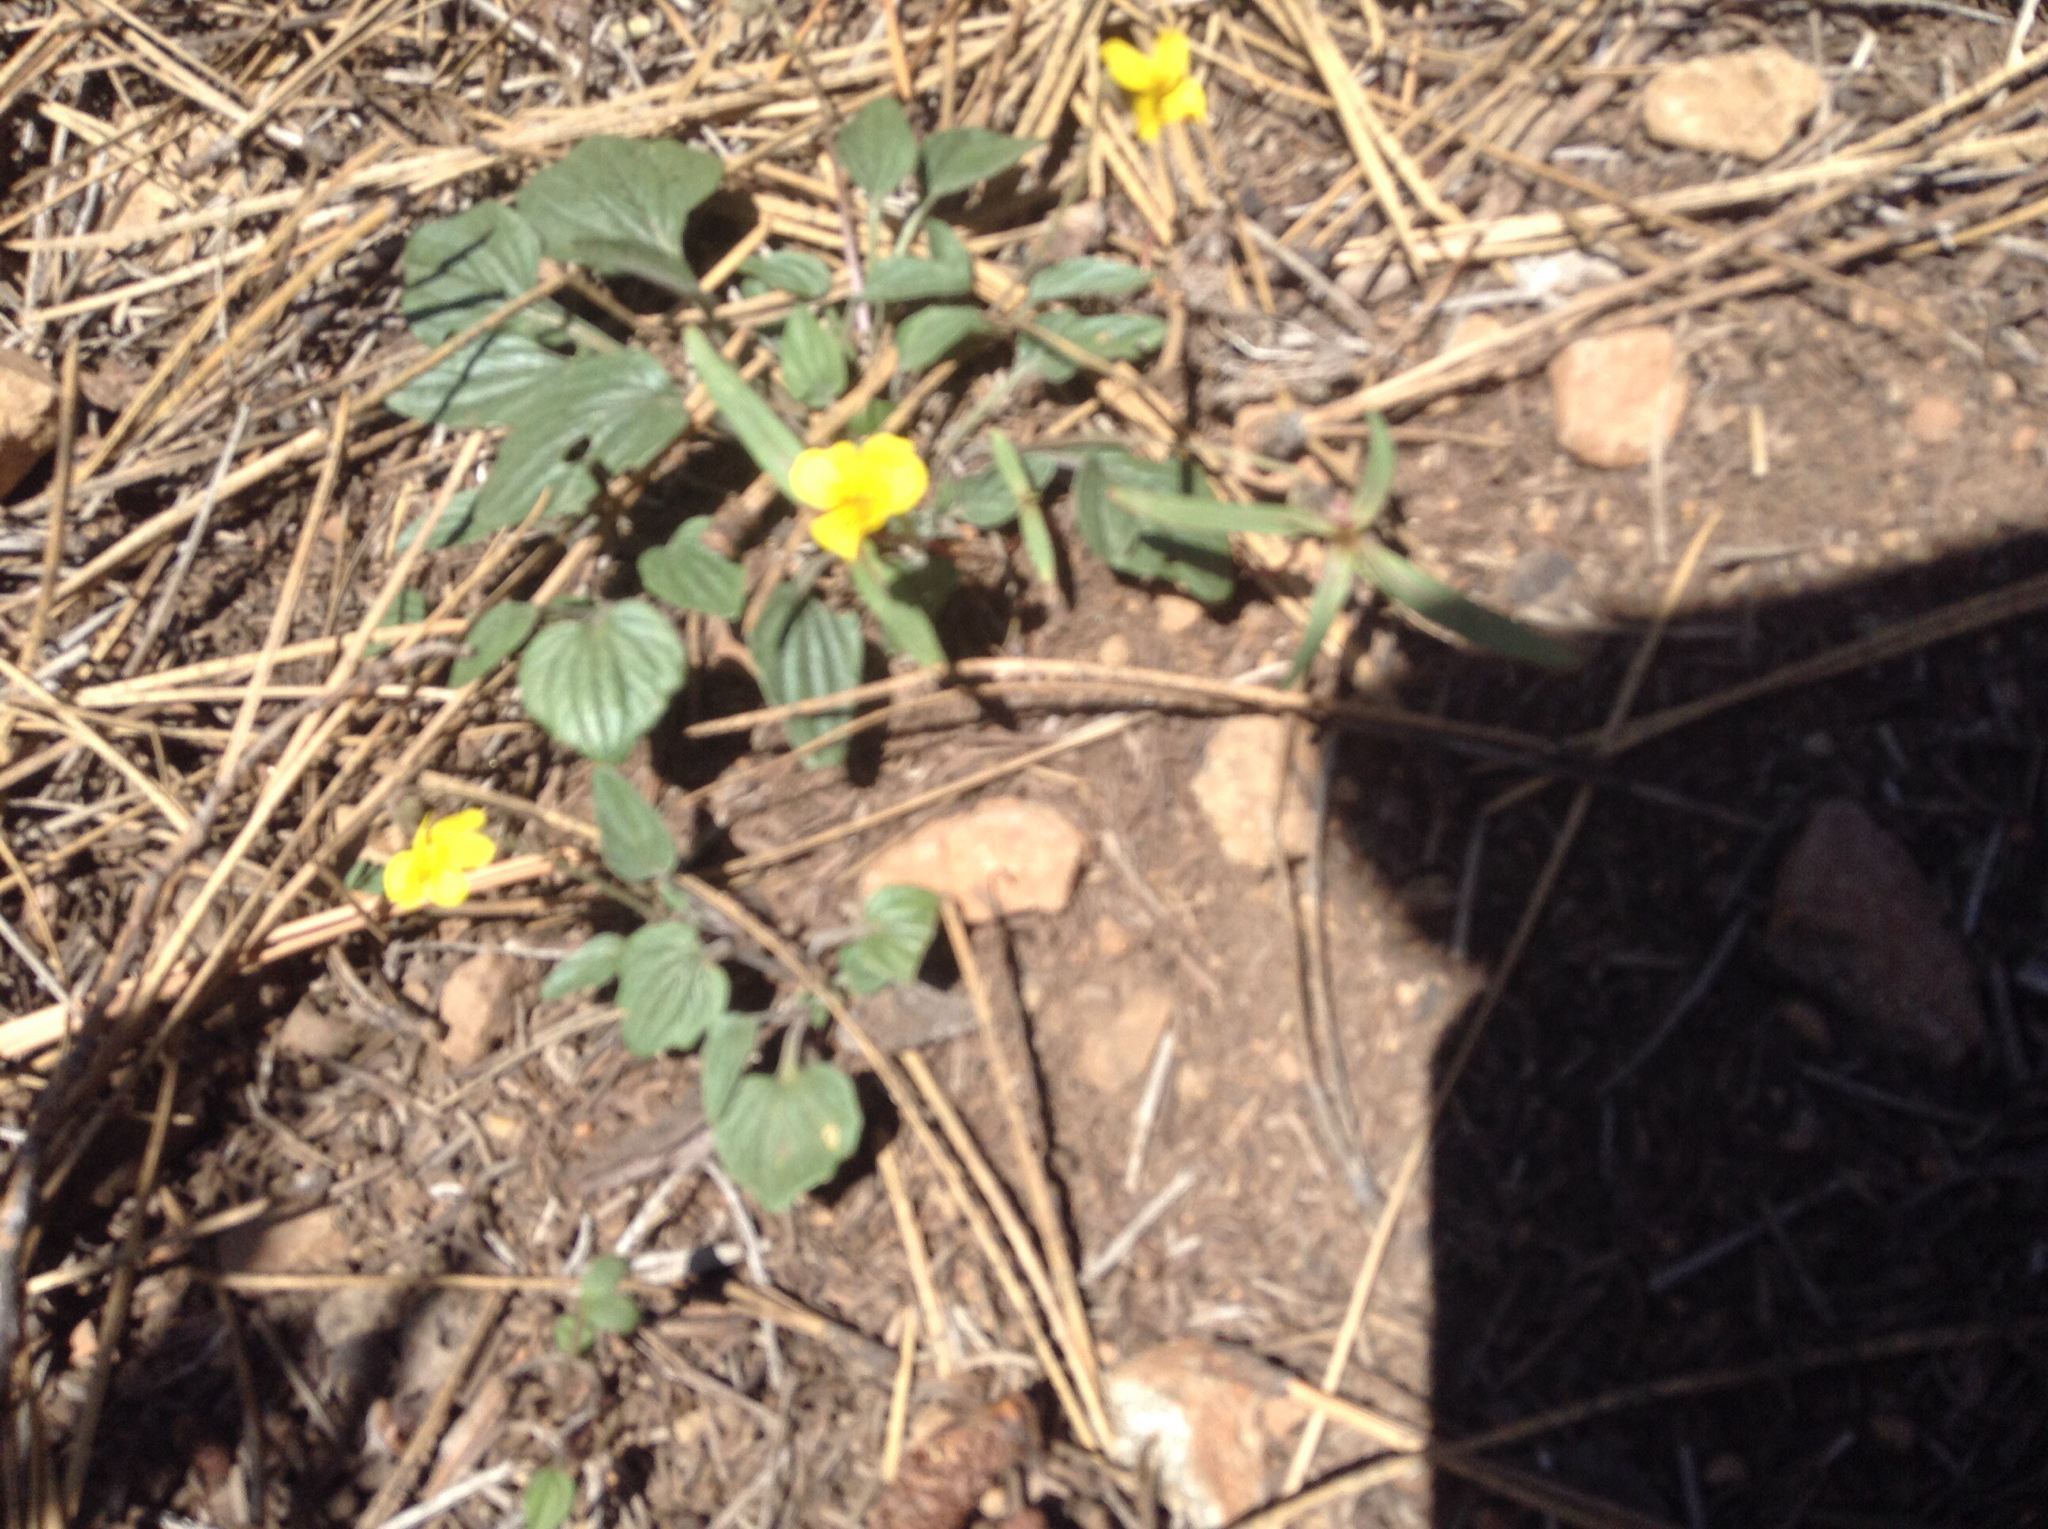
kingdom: Plantae
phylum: Tracheophyta
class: Magnoliopsida
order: Malpighiales
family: Violaceae
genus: Viola
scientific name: Viola purpurea
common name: Pine violet
